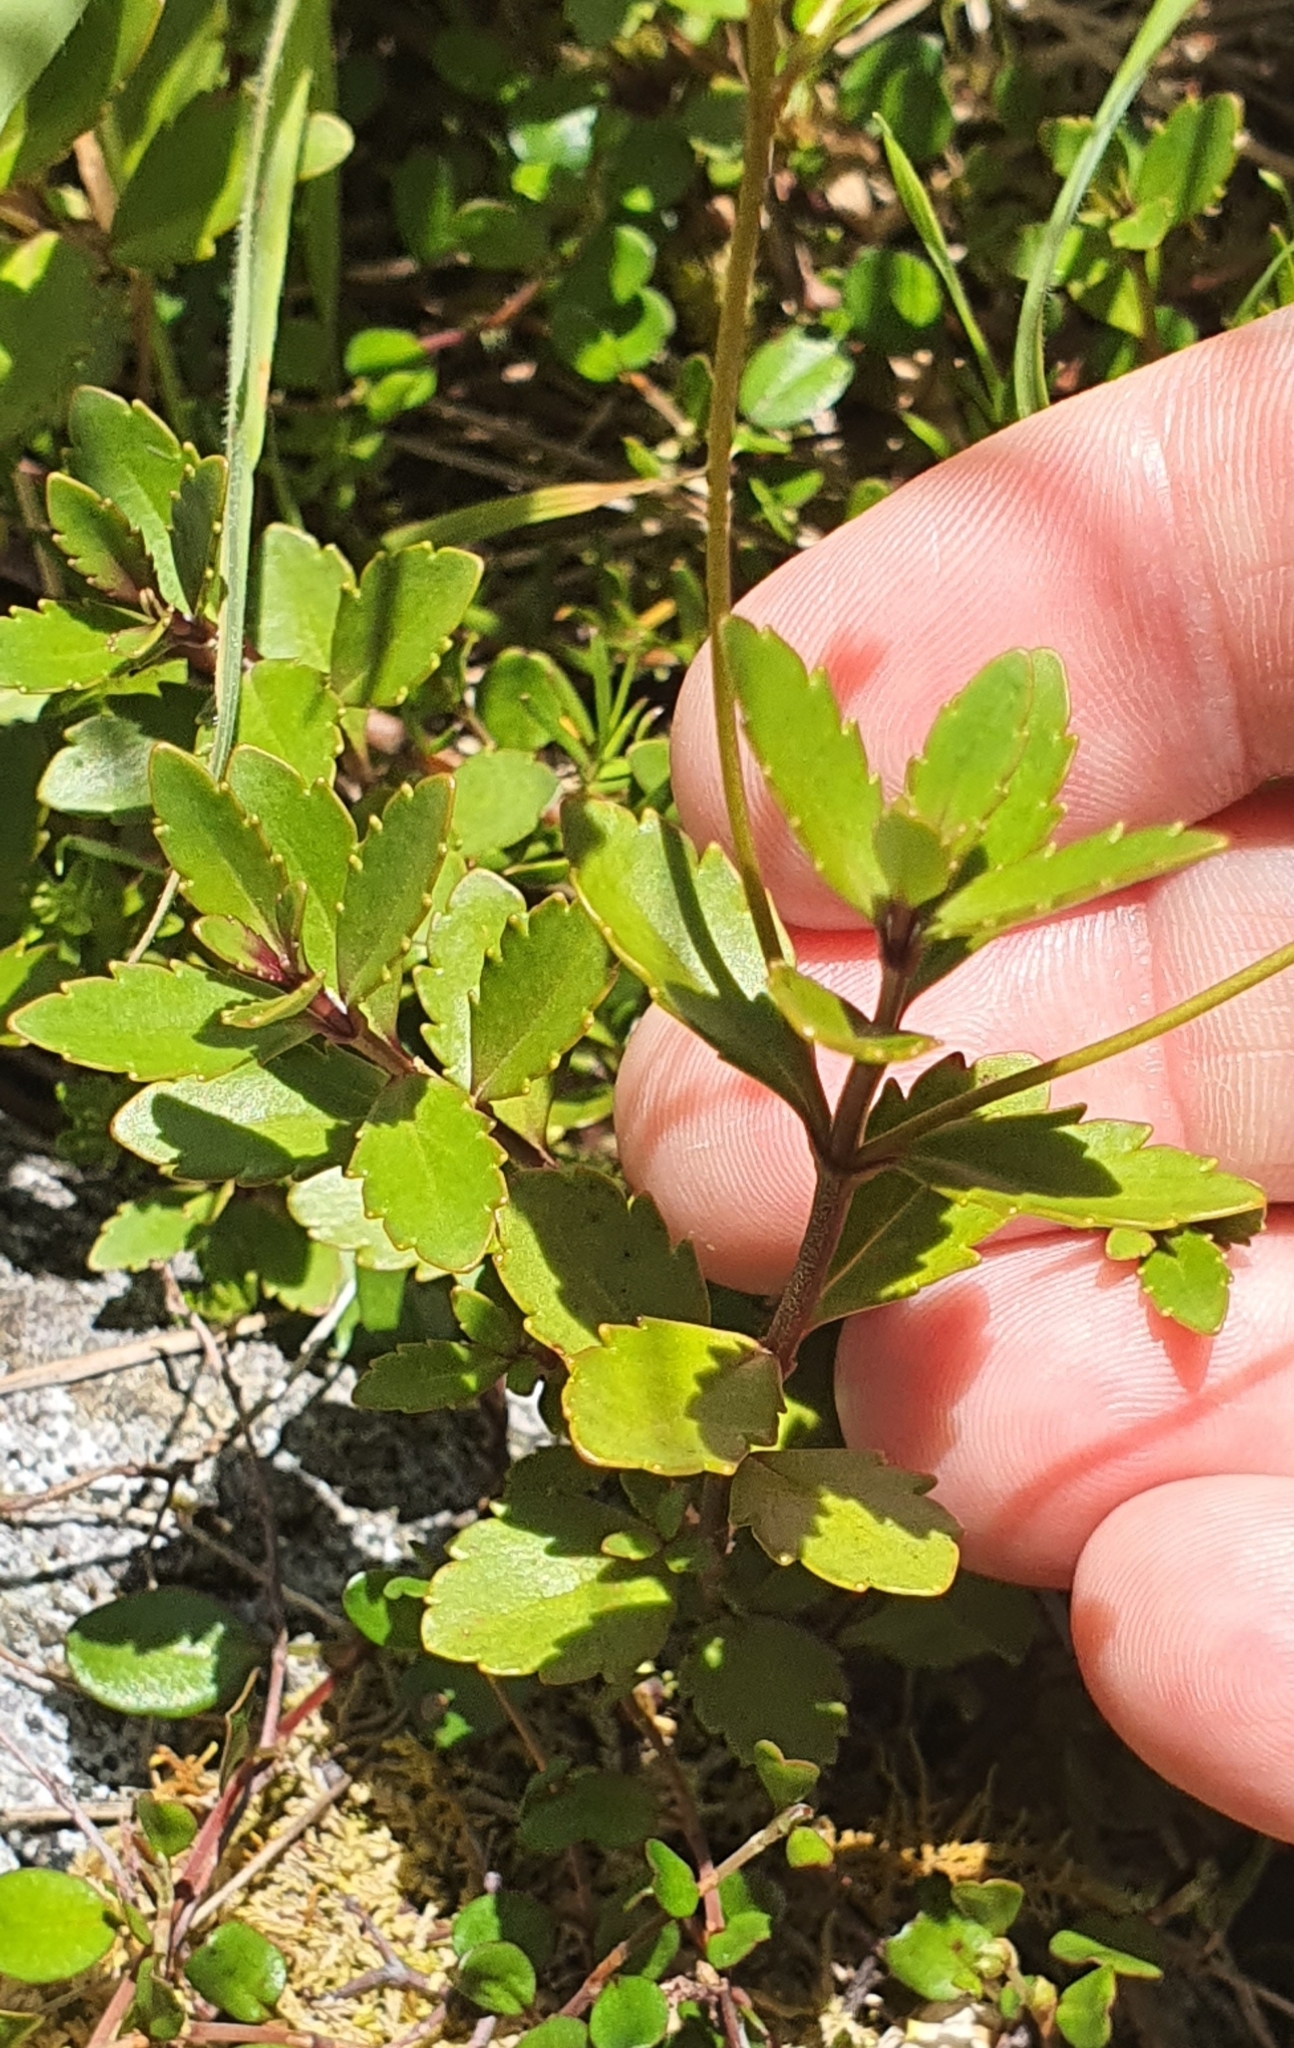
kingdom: Plantae
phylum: Tracheophyta
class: Magnoliopsida
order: Lamiales
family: Plantaginaceae
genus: Veronica
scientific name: Veronica catarractae
